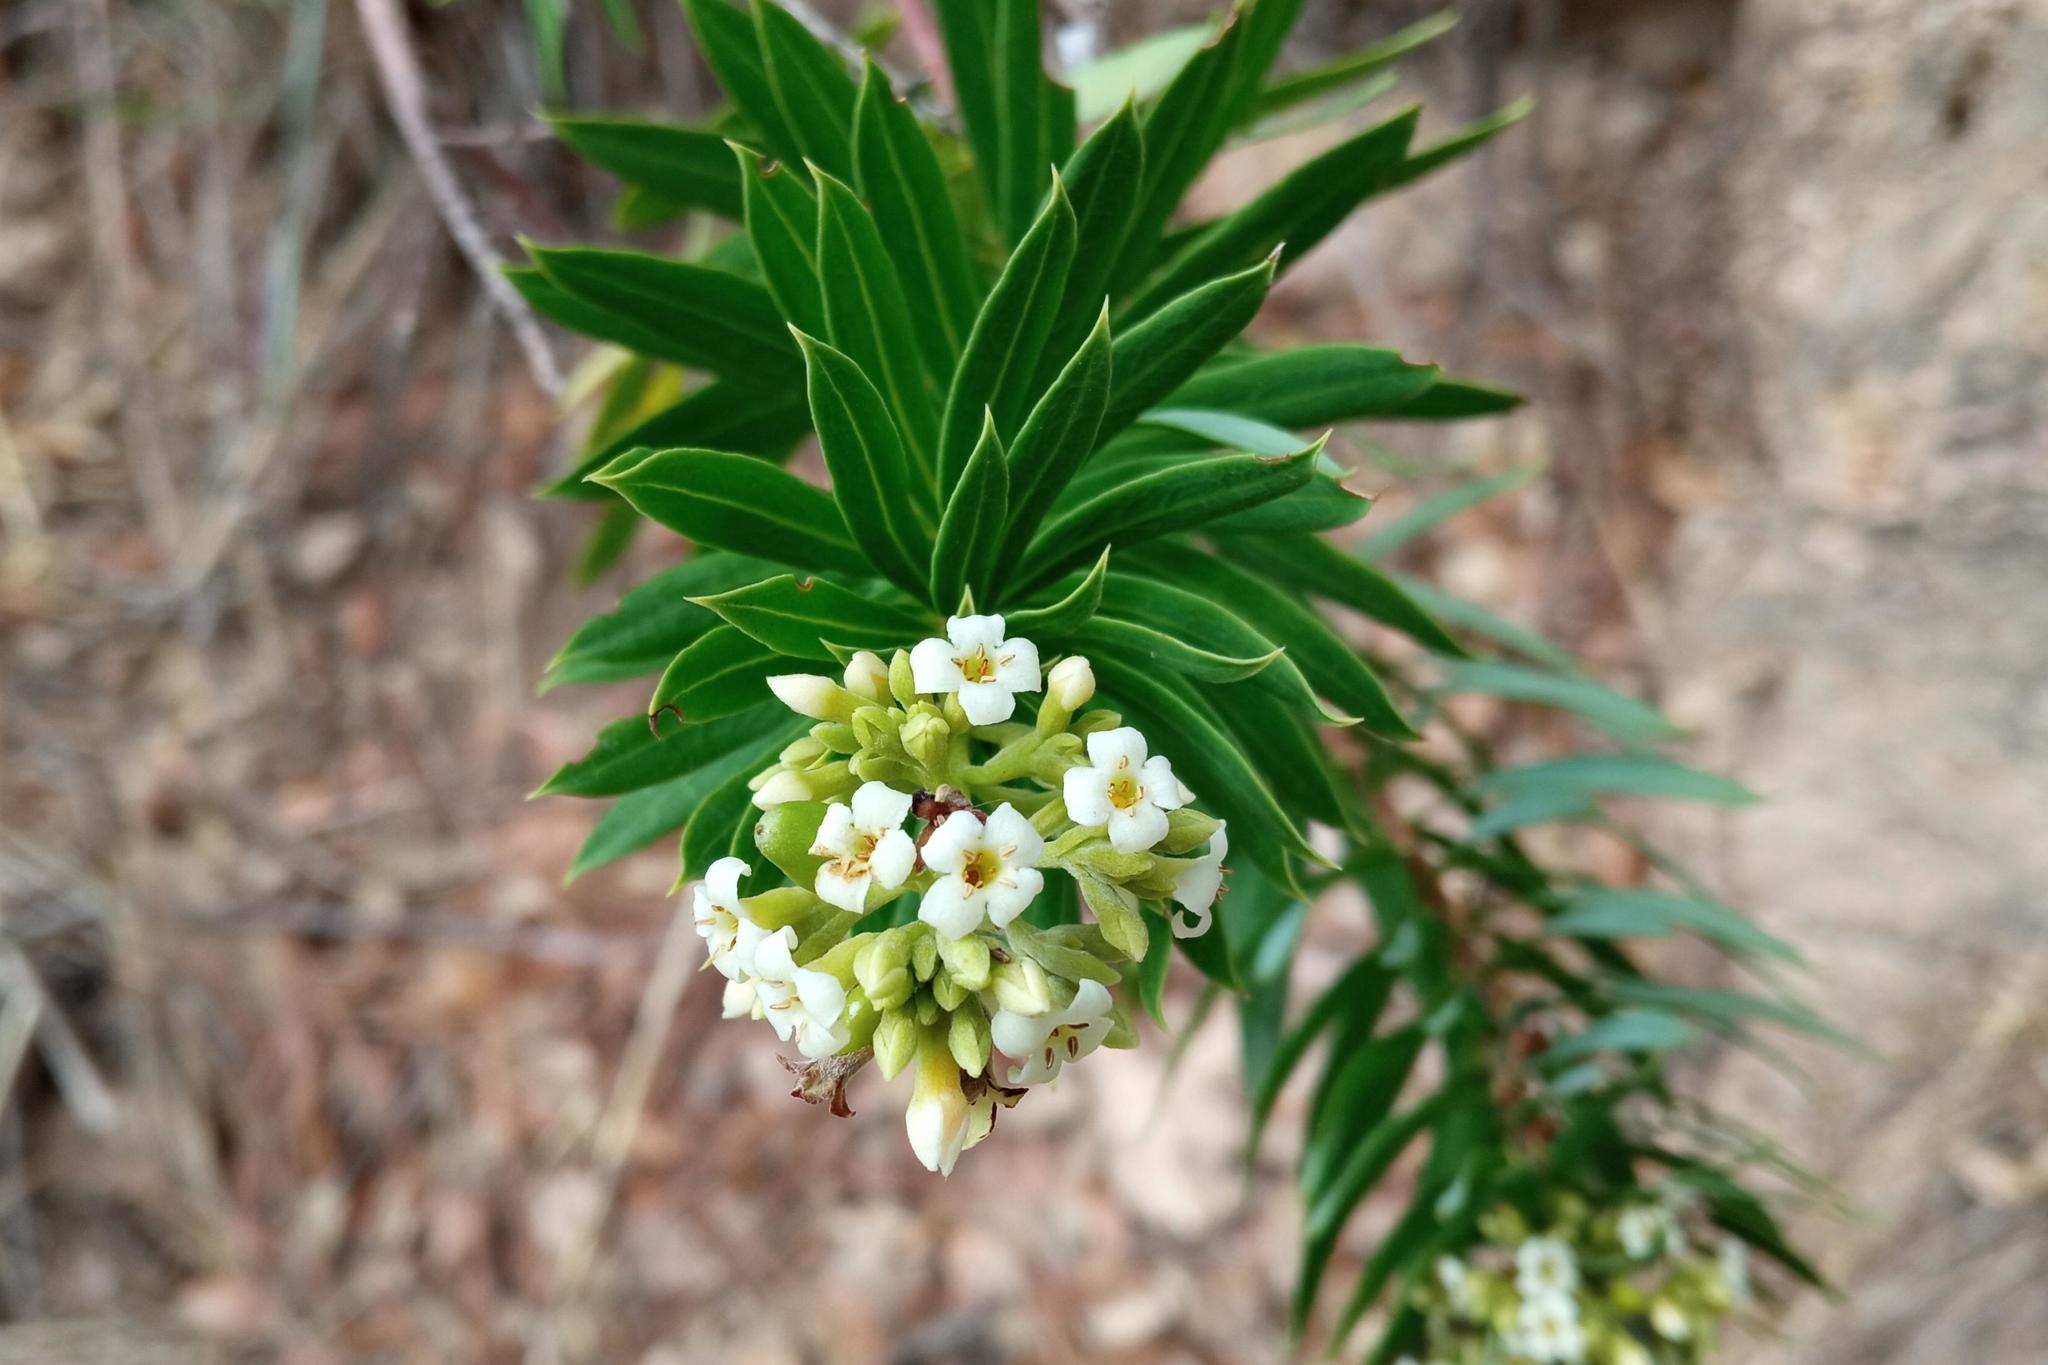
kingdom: Plantae
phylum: Tracheophyta
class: Magnoliopsida
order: Malvales
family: Thymelaeaceae
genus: Daphne
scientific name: Daphne gnidium
